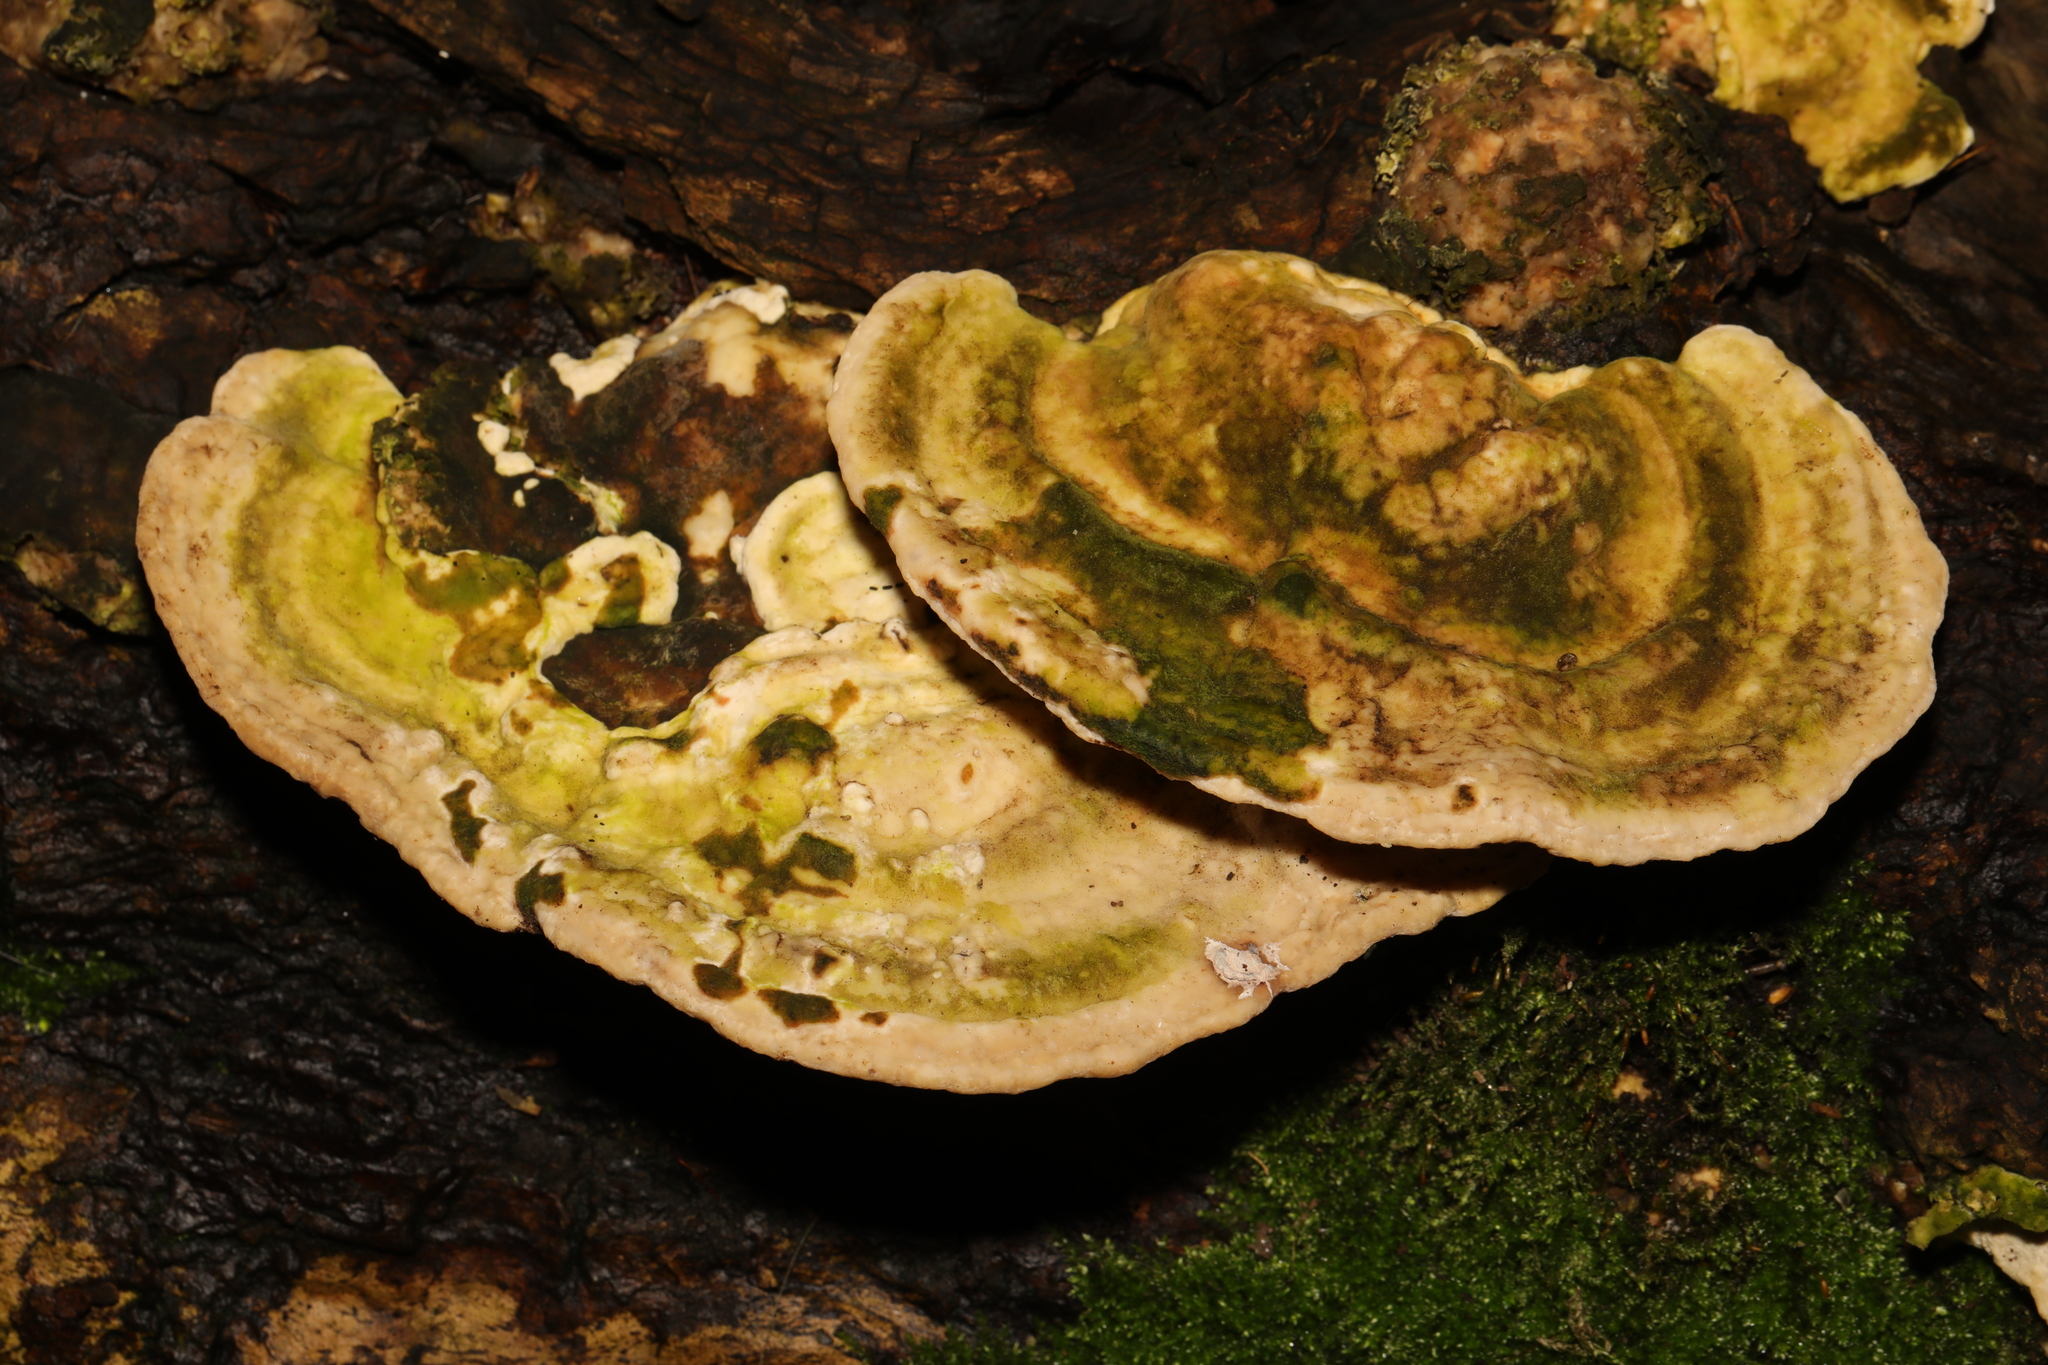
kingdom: Fungi
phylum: Basidiomycota
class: Agaricomycetes
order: Polyporales
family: Polyporaceae
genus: Trametes
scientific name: Trametes gibbosa
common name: Lumpy bracket
